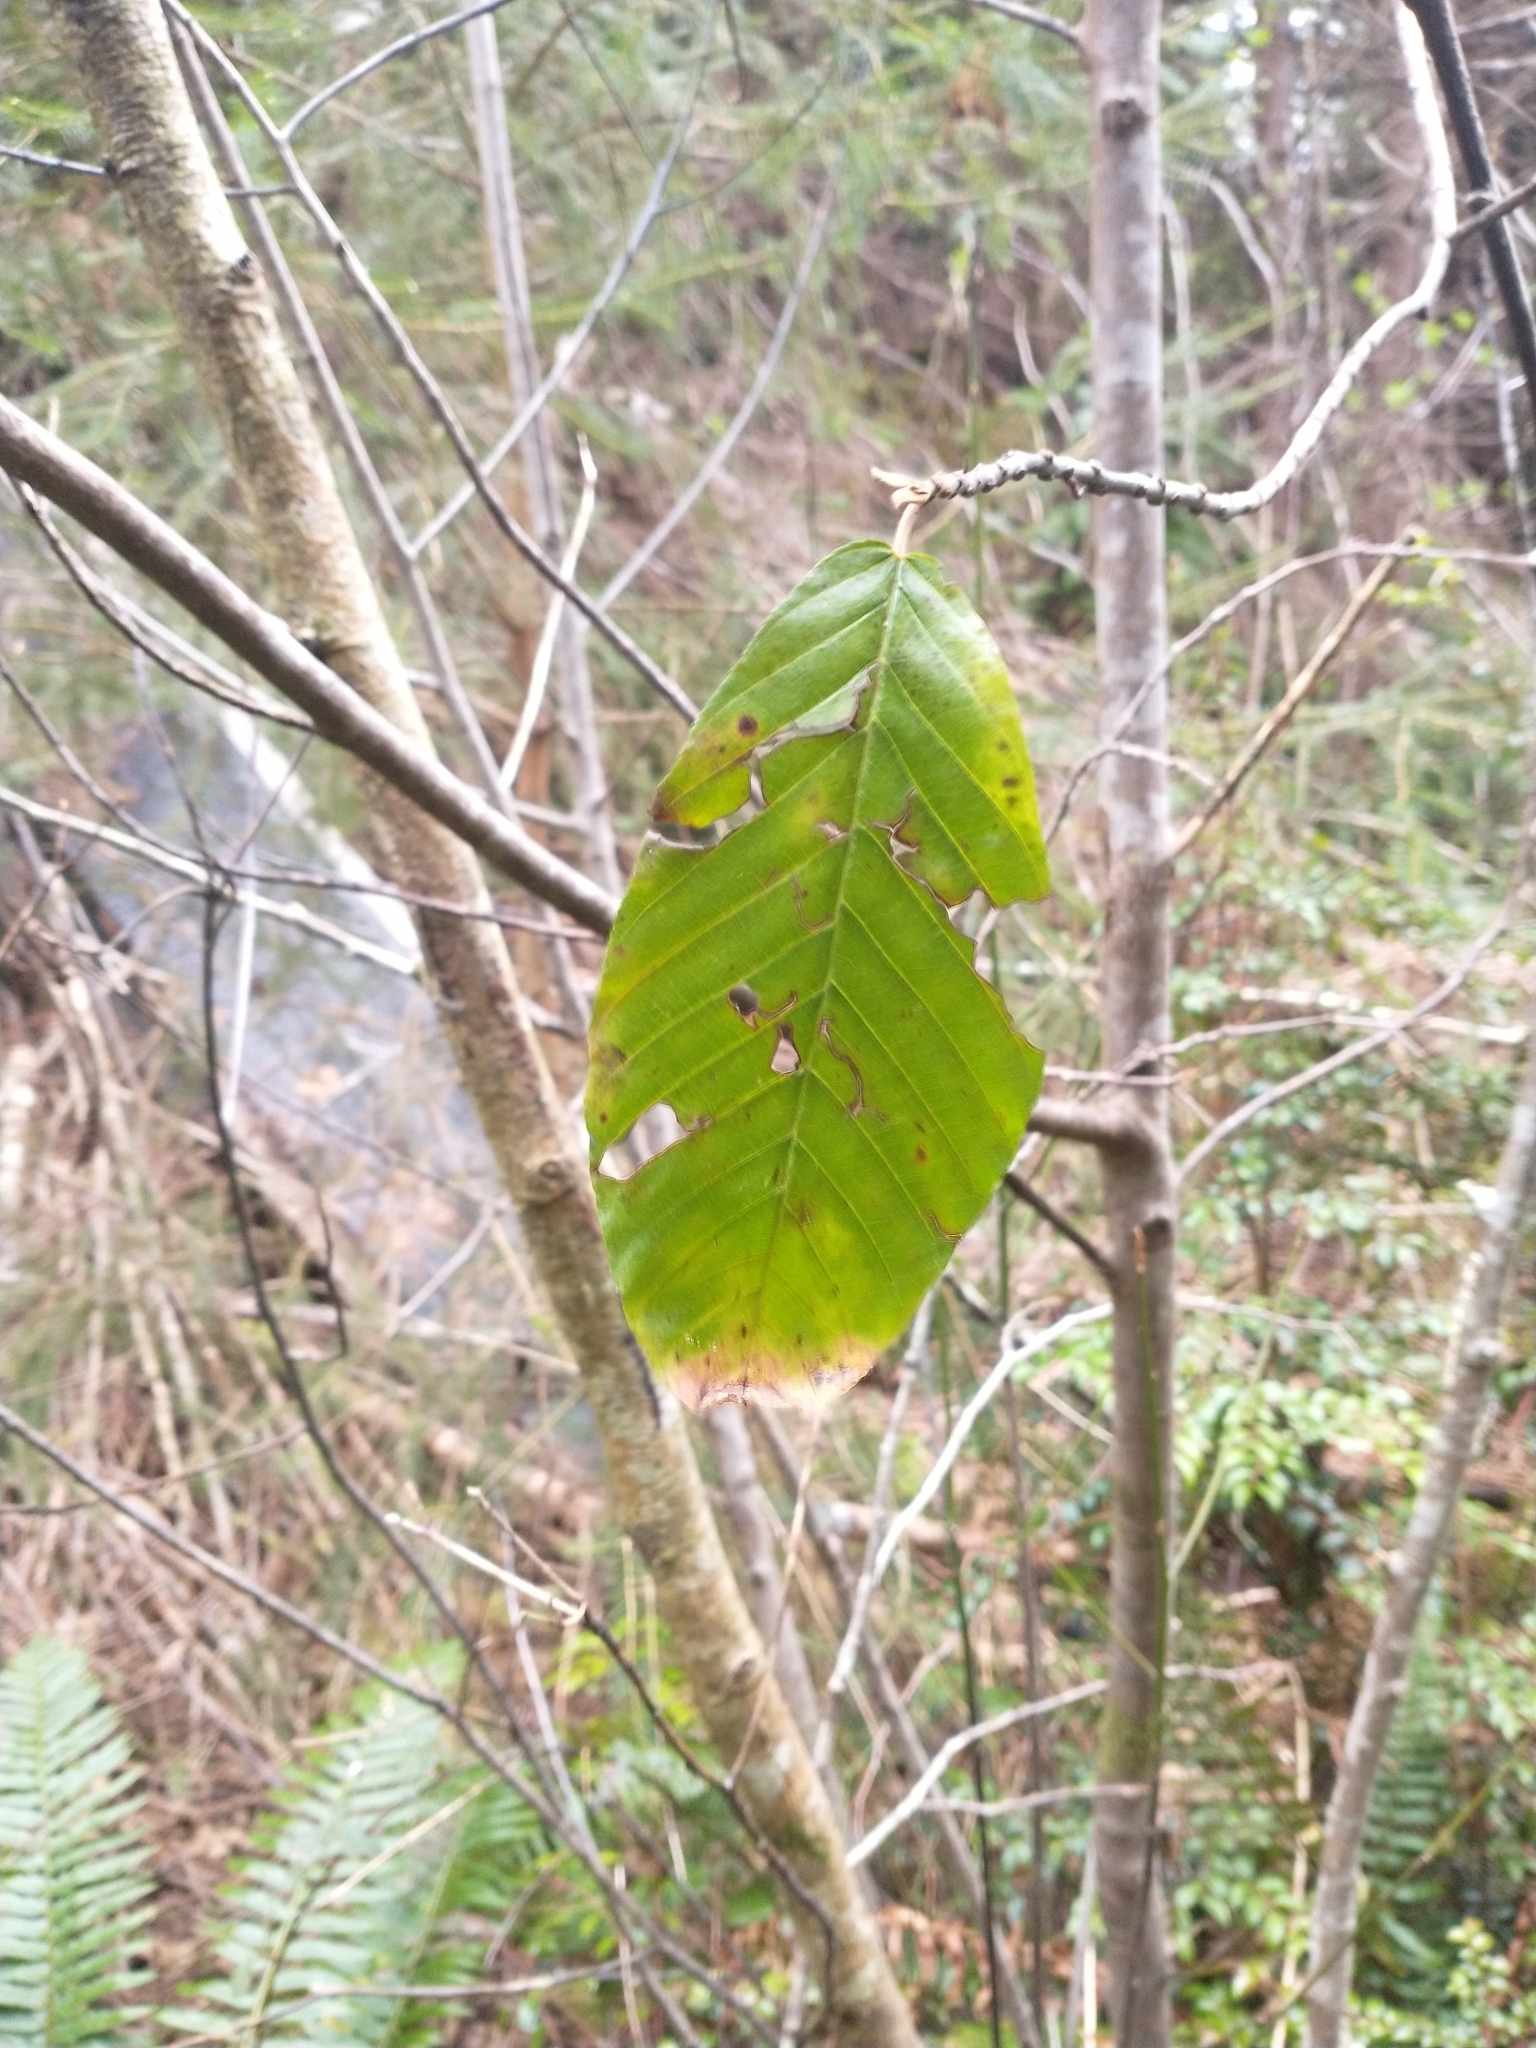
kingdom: Plantae
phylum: Tracheophyta
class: Magnoliopsida
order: Rosales
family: Rhamnaceae
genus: Frangula
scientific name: Frangula purshiana
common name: Cascara buckthorn
